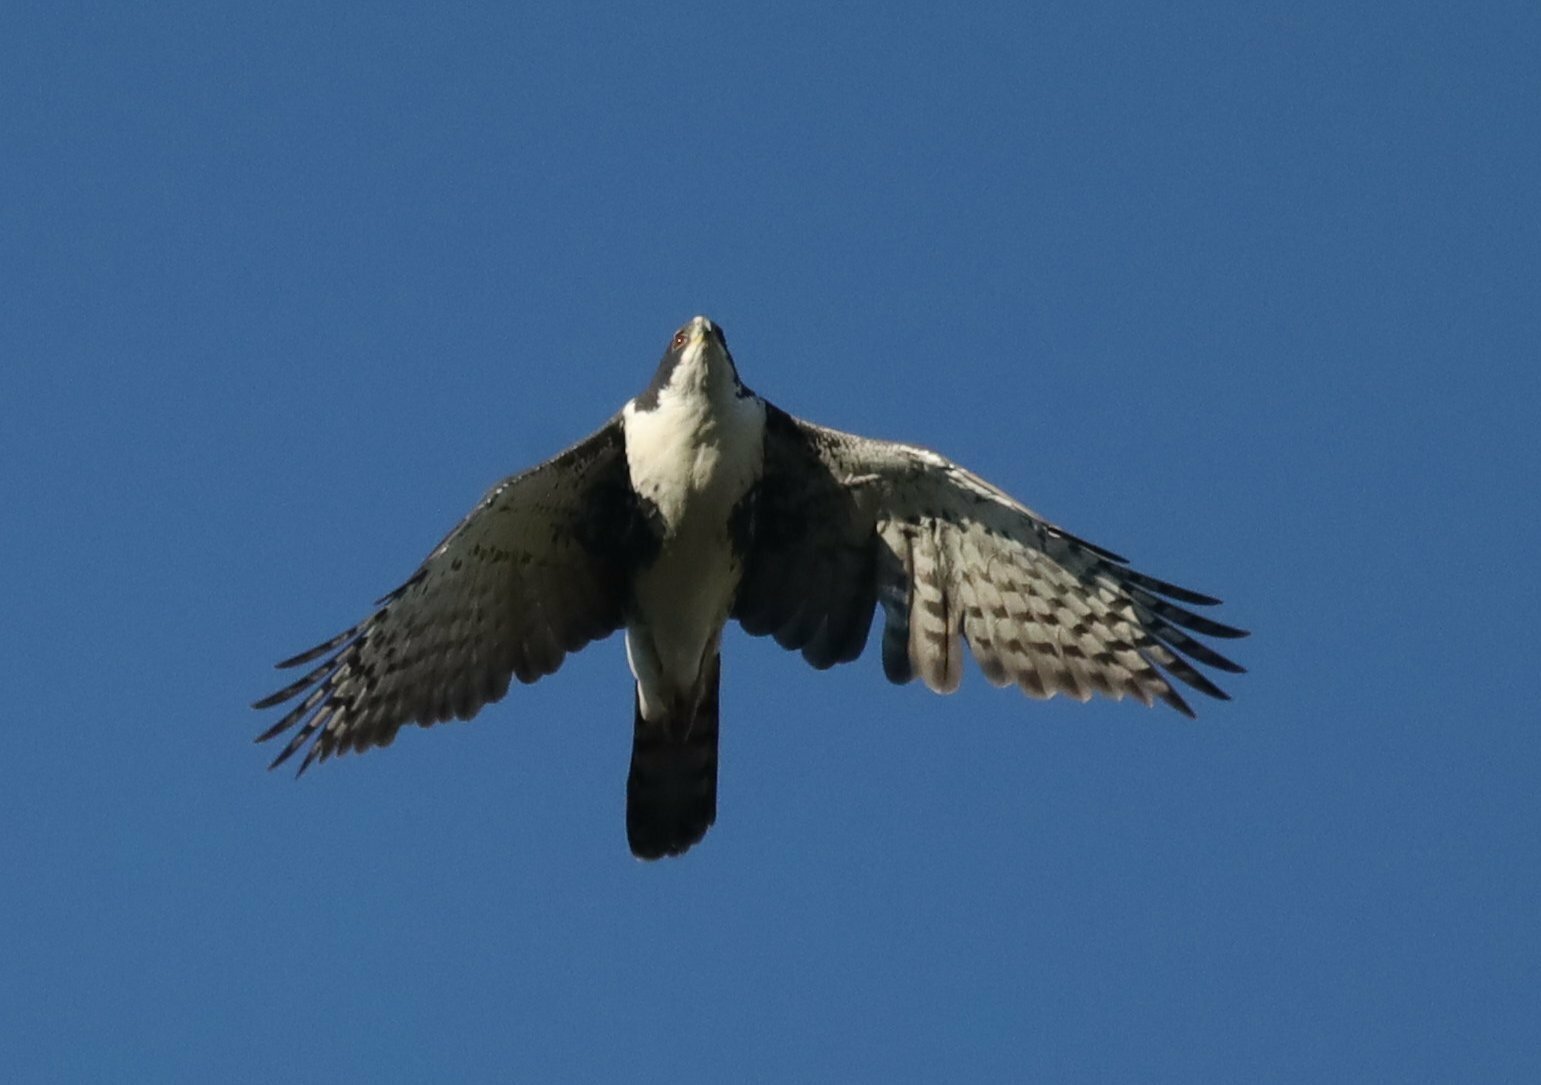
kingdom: Animalia
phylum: Chordata
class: Aves
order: Accipitriformes
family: Accipitridae
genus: Accipiter
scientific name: Accipiter melanoleucus
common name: Black sparrowhawk
